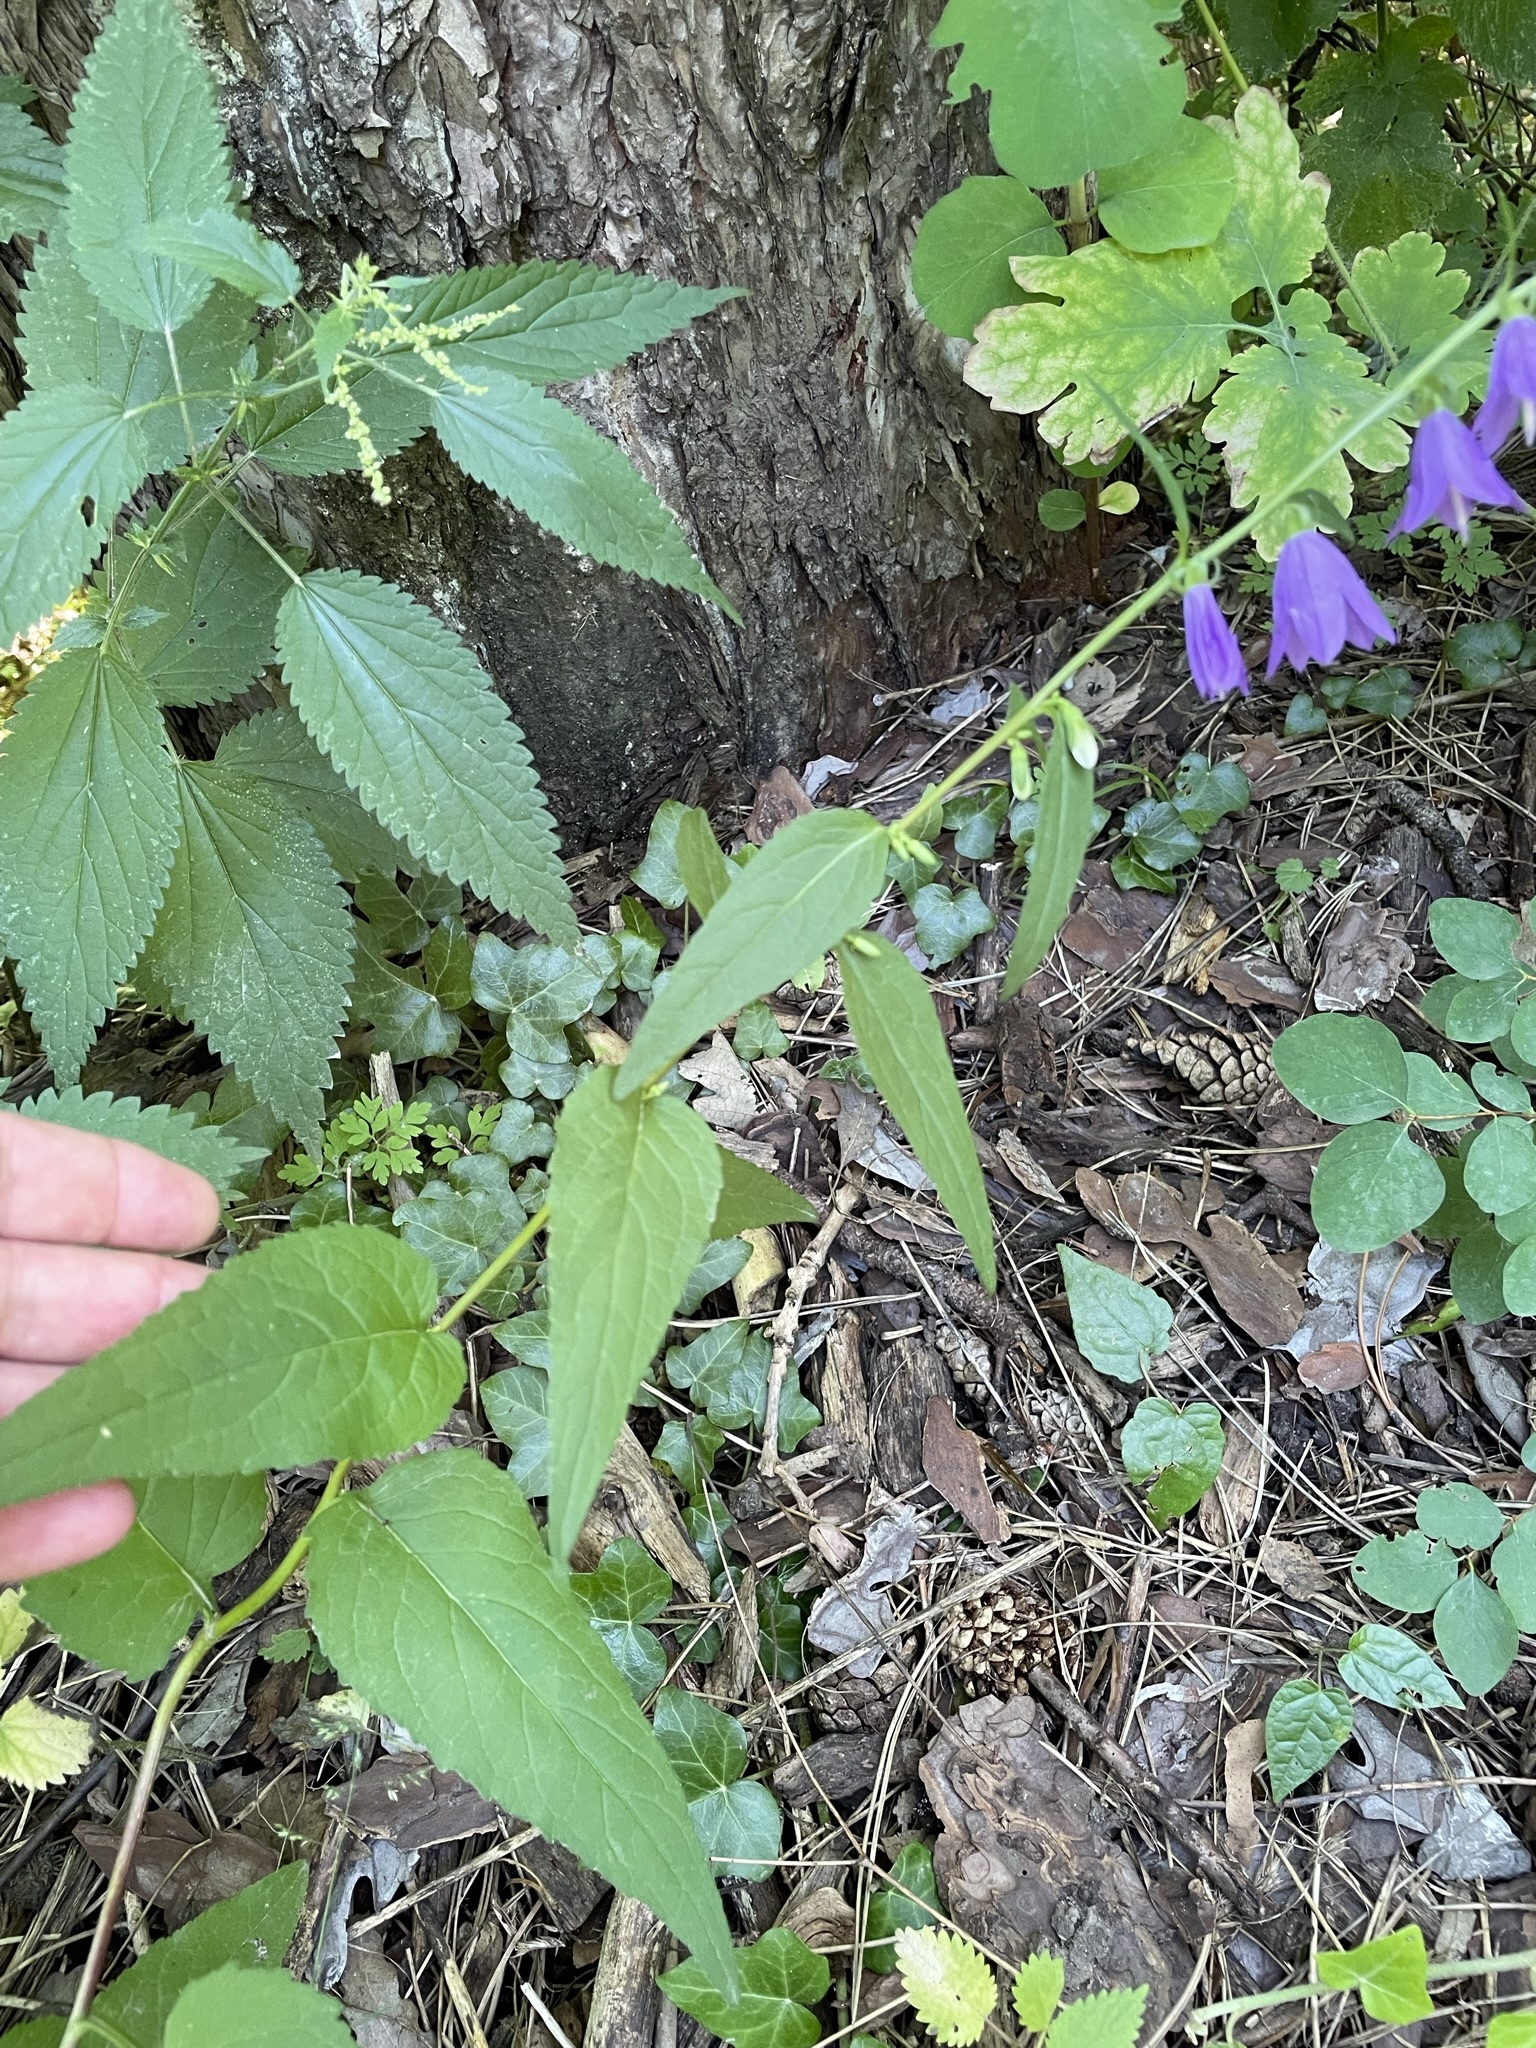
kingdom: Plantae
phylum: Tracheophyta
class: Magnoliopsida
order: Asterales
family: Campanulaceae
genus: Campanula
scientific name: Campanula rapunculoides
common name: Creeping bellflower
